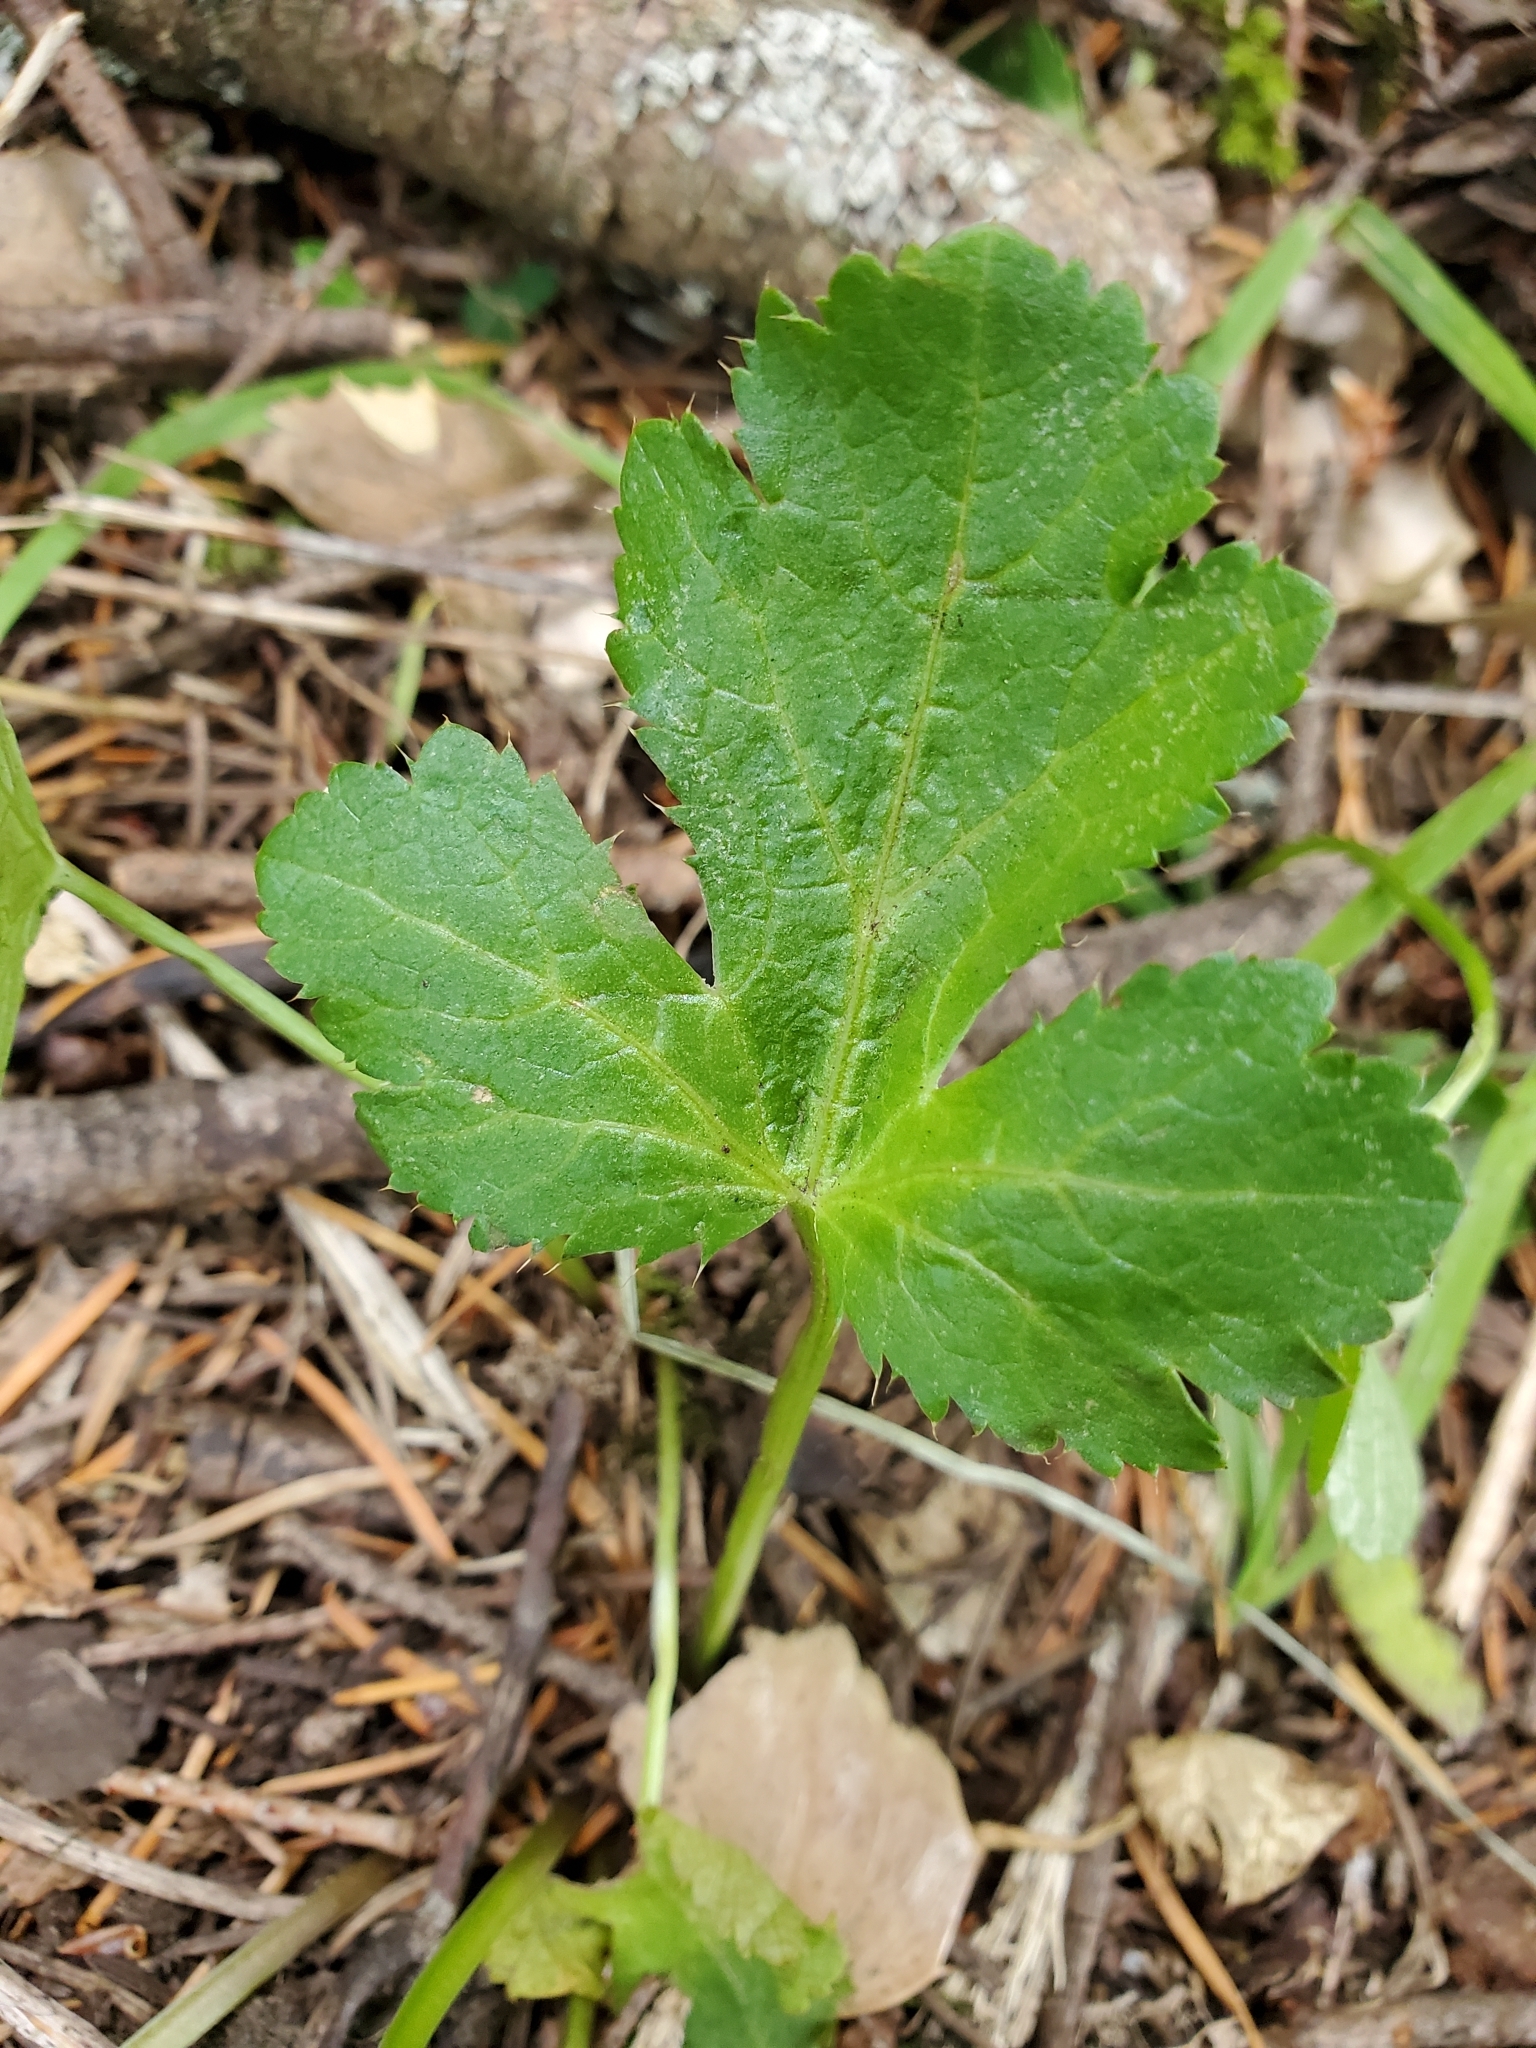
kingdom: Plantae
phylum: Tracheophyta
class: Magnoliopsida
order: Apiales
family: Apiaceae
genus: Sanicula
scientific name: Sanicula crassicaulis
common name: Western snakeroot
